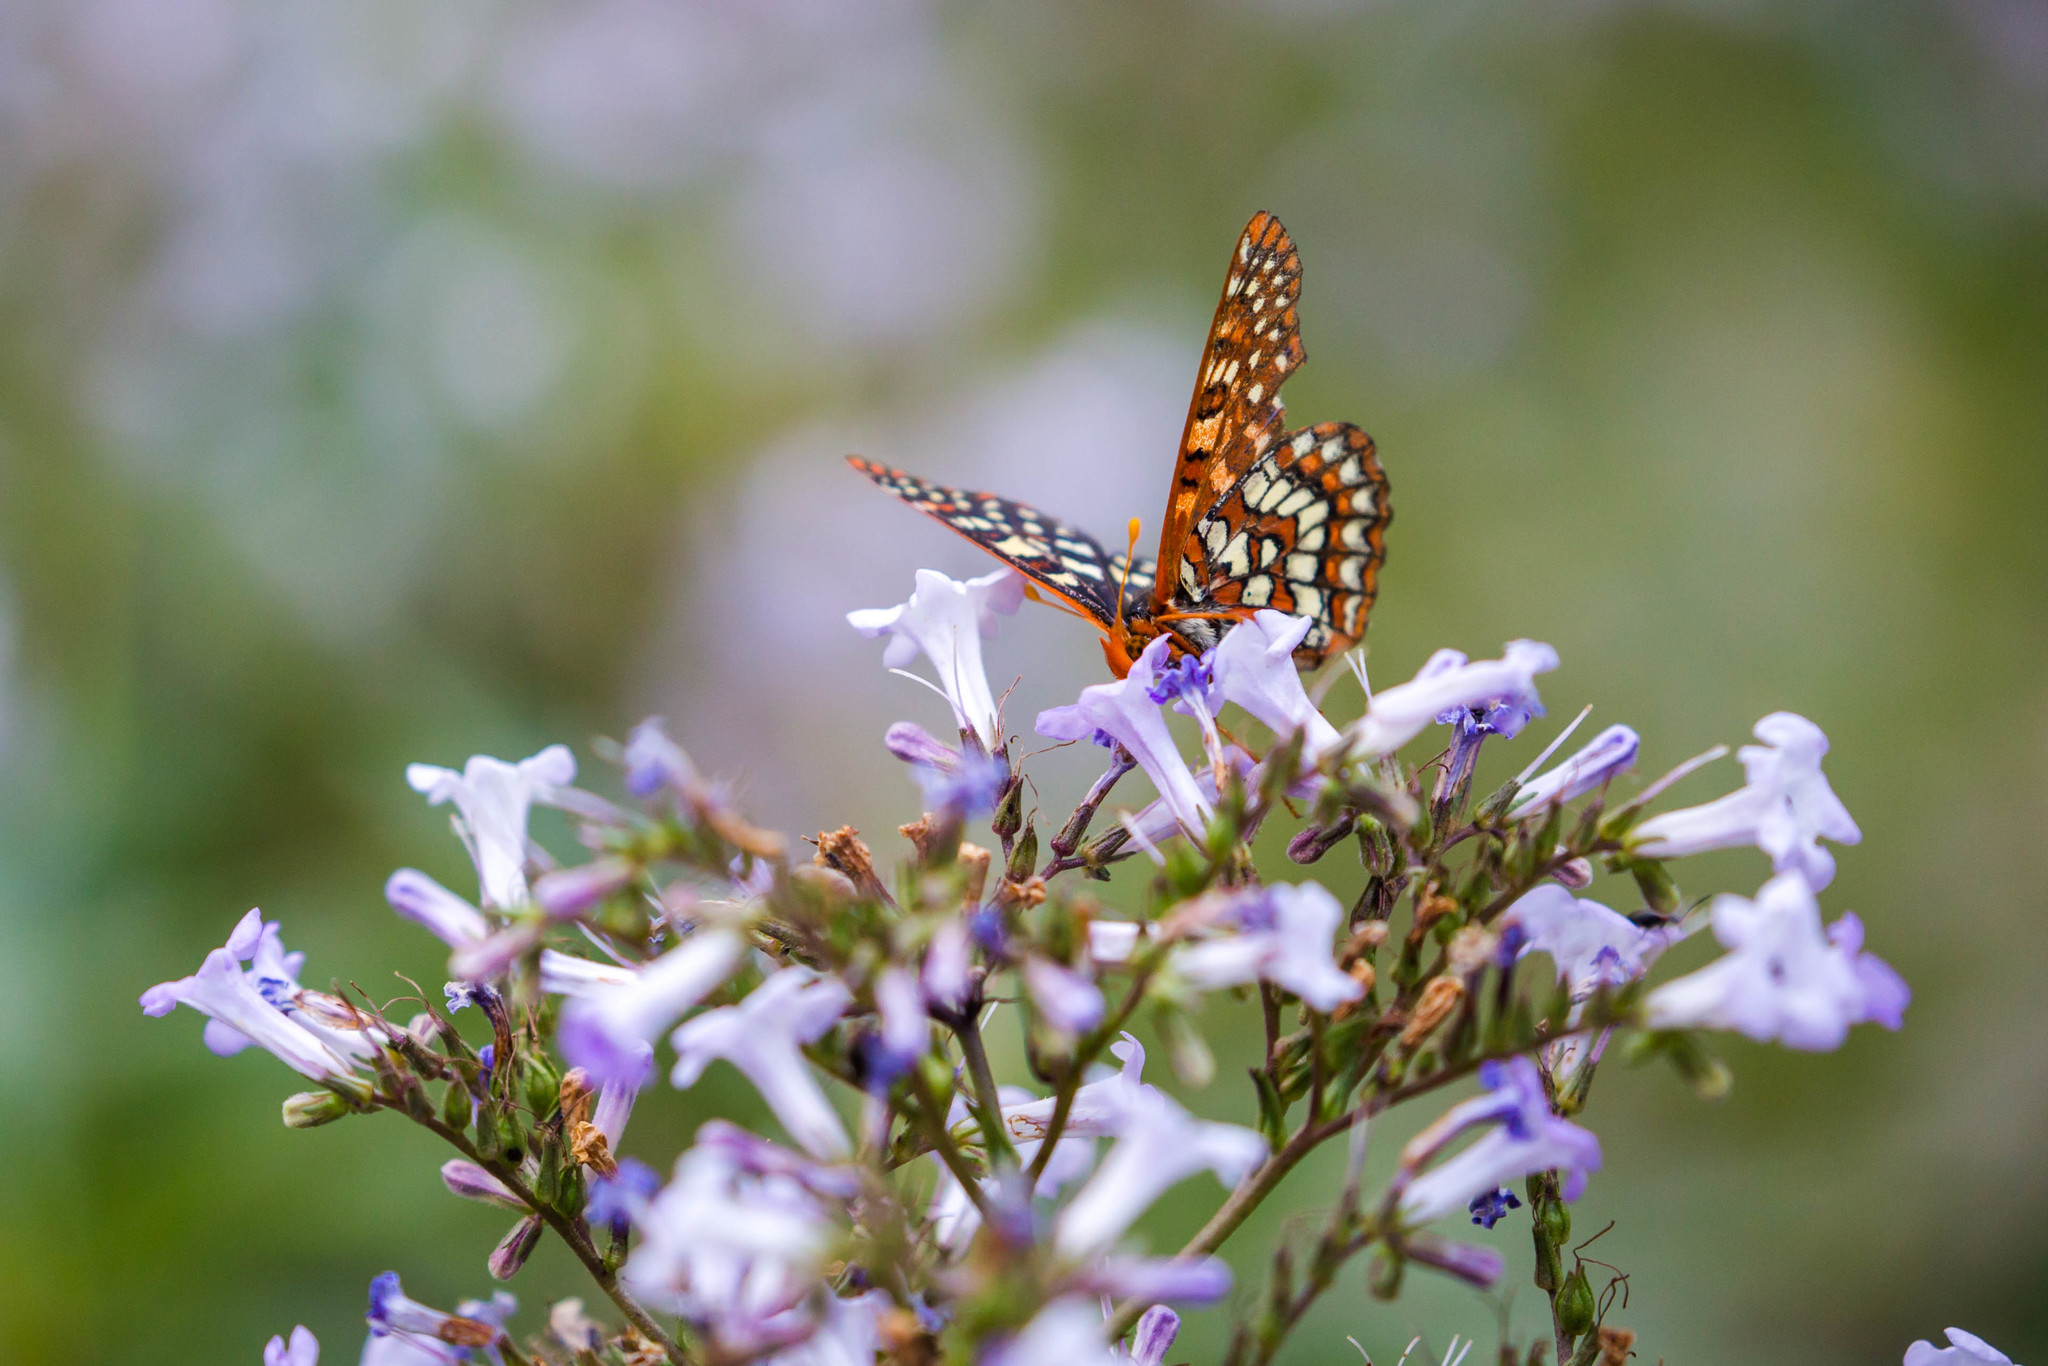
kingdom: Animalia
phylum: Arthropoda
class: Insecta
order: Lepidoptera
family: Nymphalidae
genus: Occidryas
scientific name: Occidryas chalcedona
